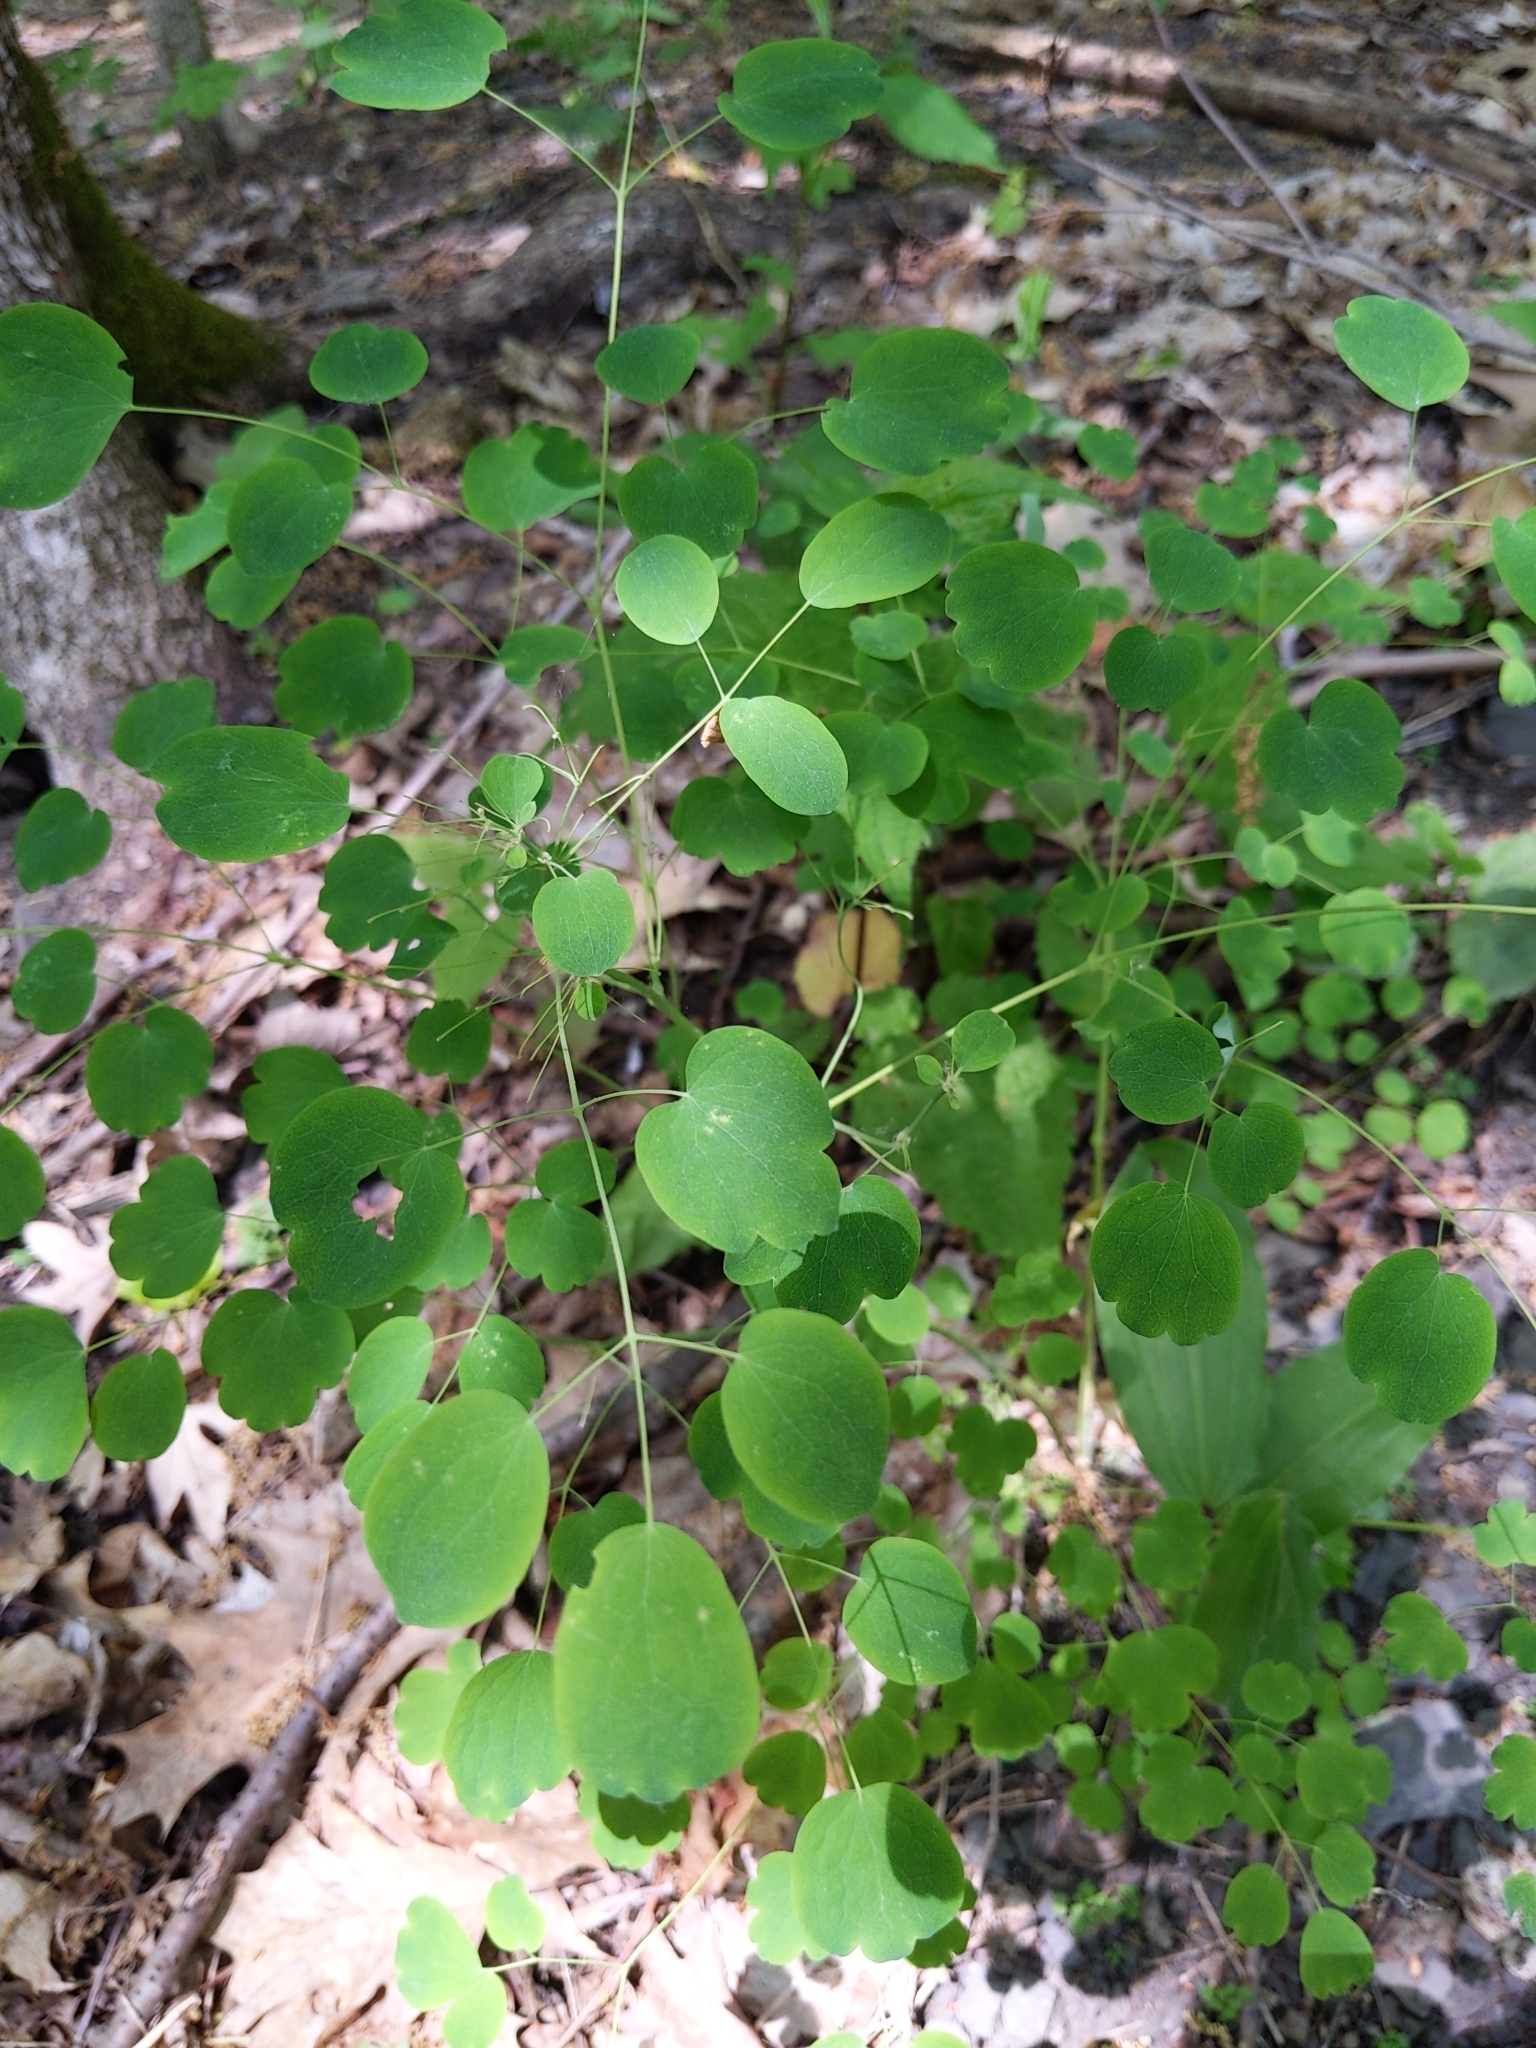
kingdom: Plantae
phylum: Tracheophyta
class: Magnoliopsida
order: Ranunculales
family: Ranunculaceae
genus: Thalictrum
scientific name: Thalictrum dioicum
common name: Early meadow-rue
